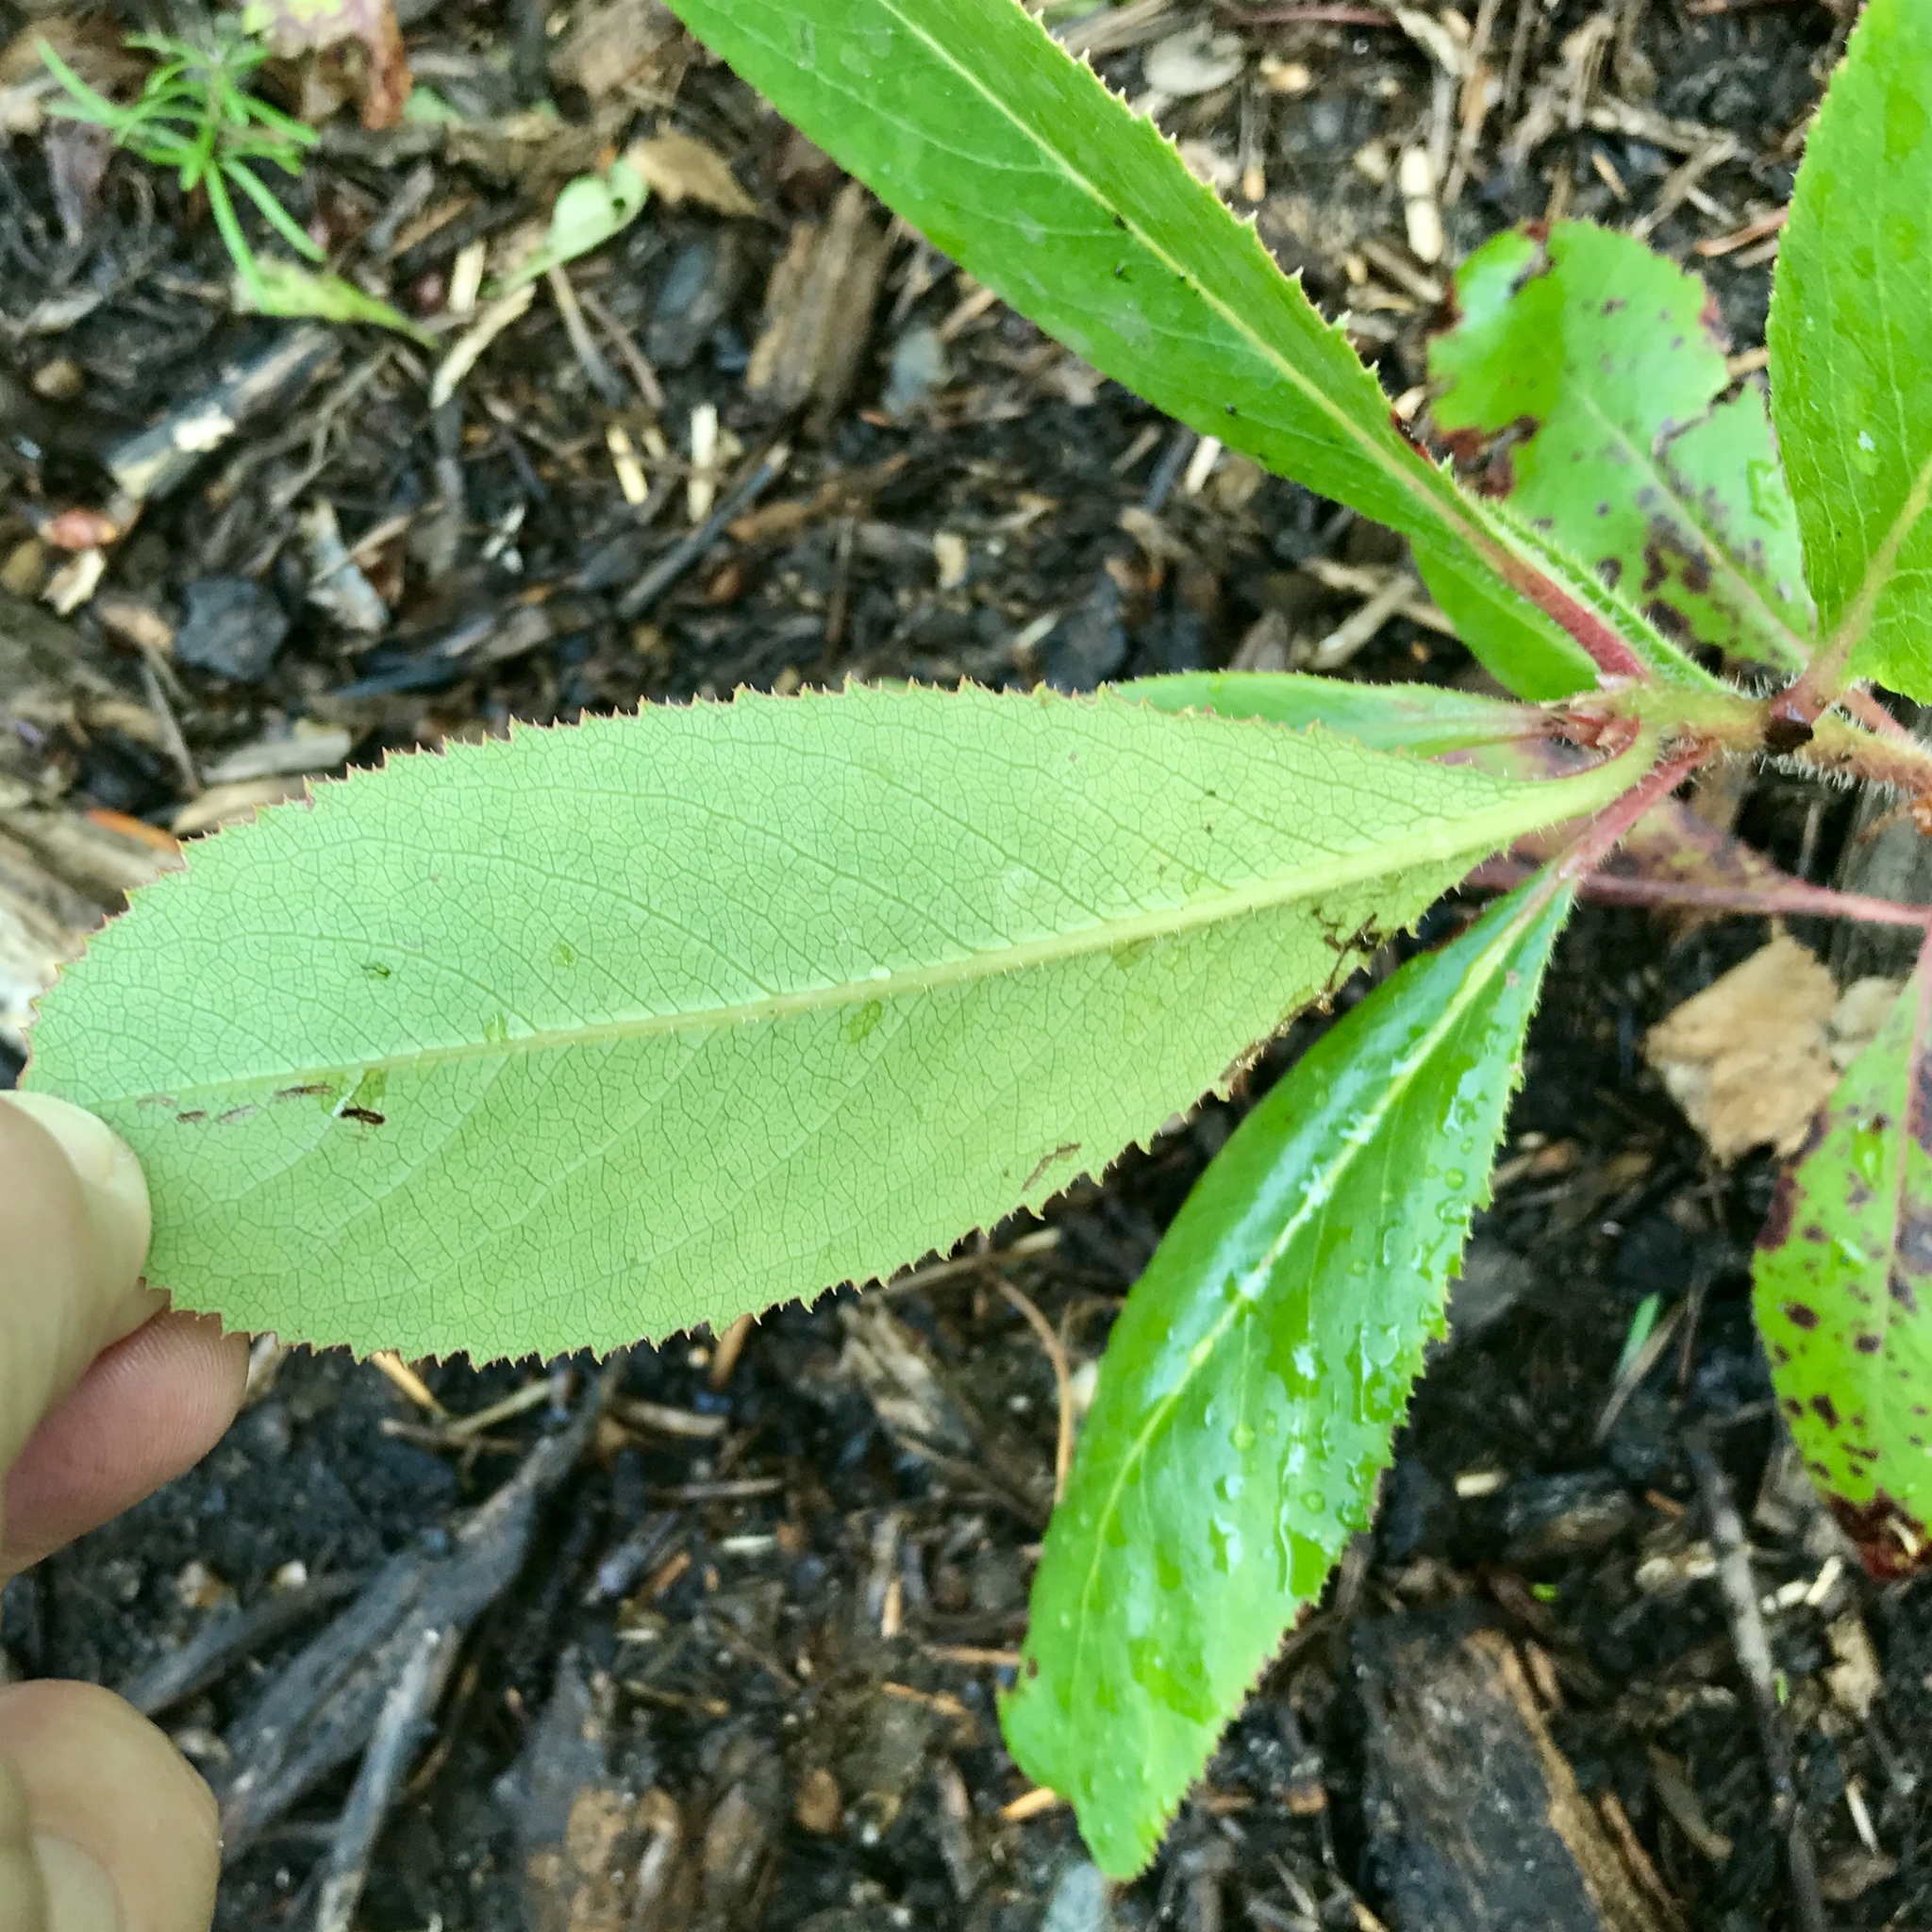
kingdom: Plantae
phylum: Tracheophyta
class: Magnoliopsida
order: Ericales
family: Ericaceae
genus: Arbutus
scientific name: Arbutus menziesii
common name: Pacific madrone
